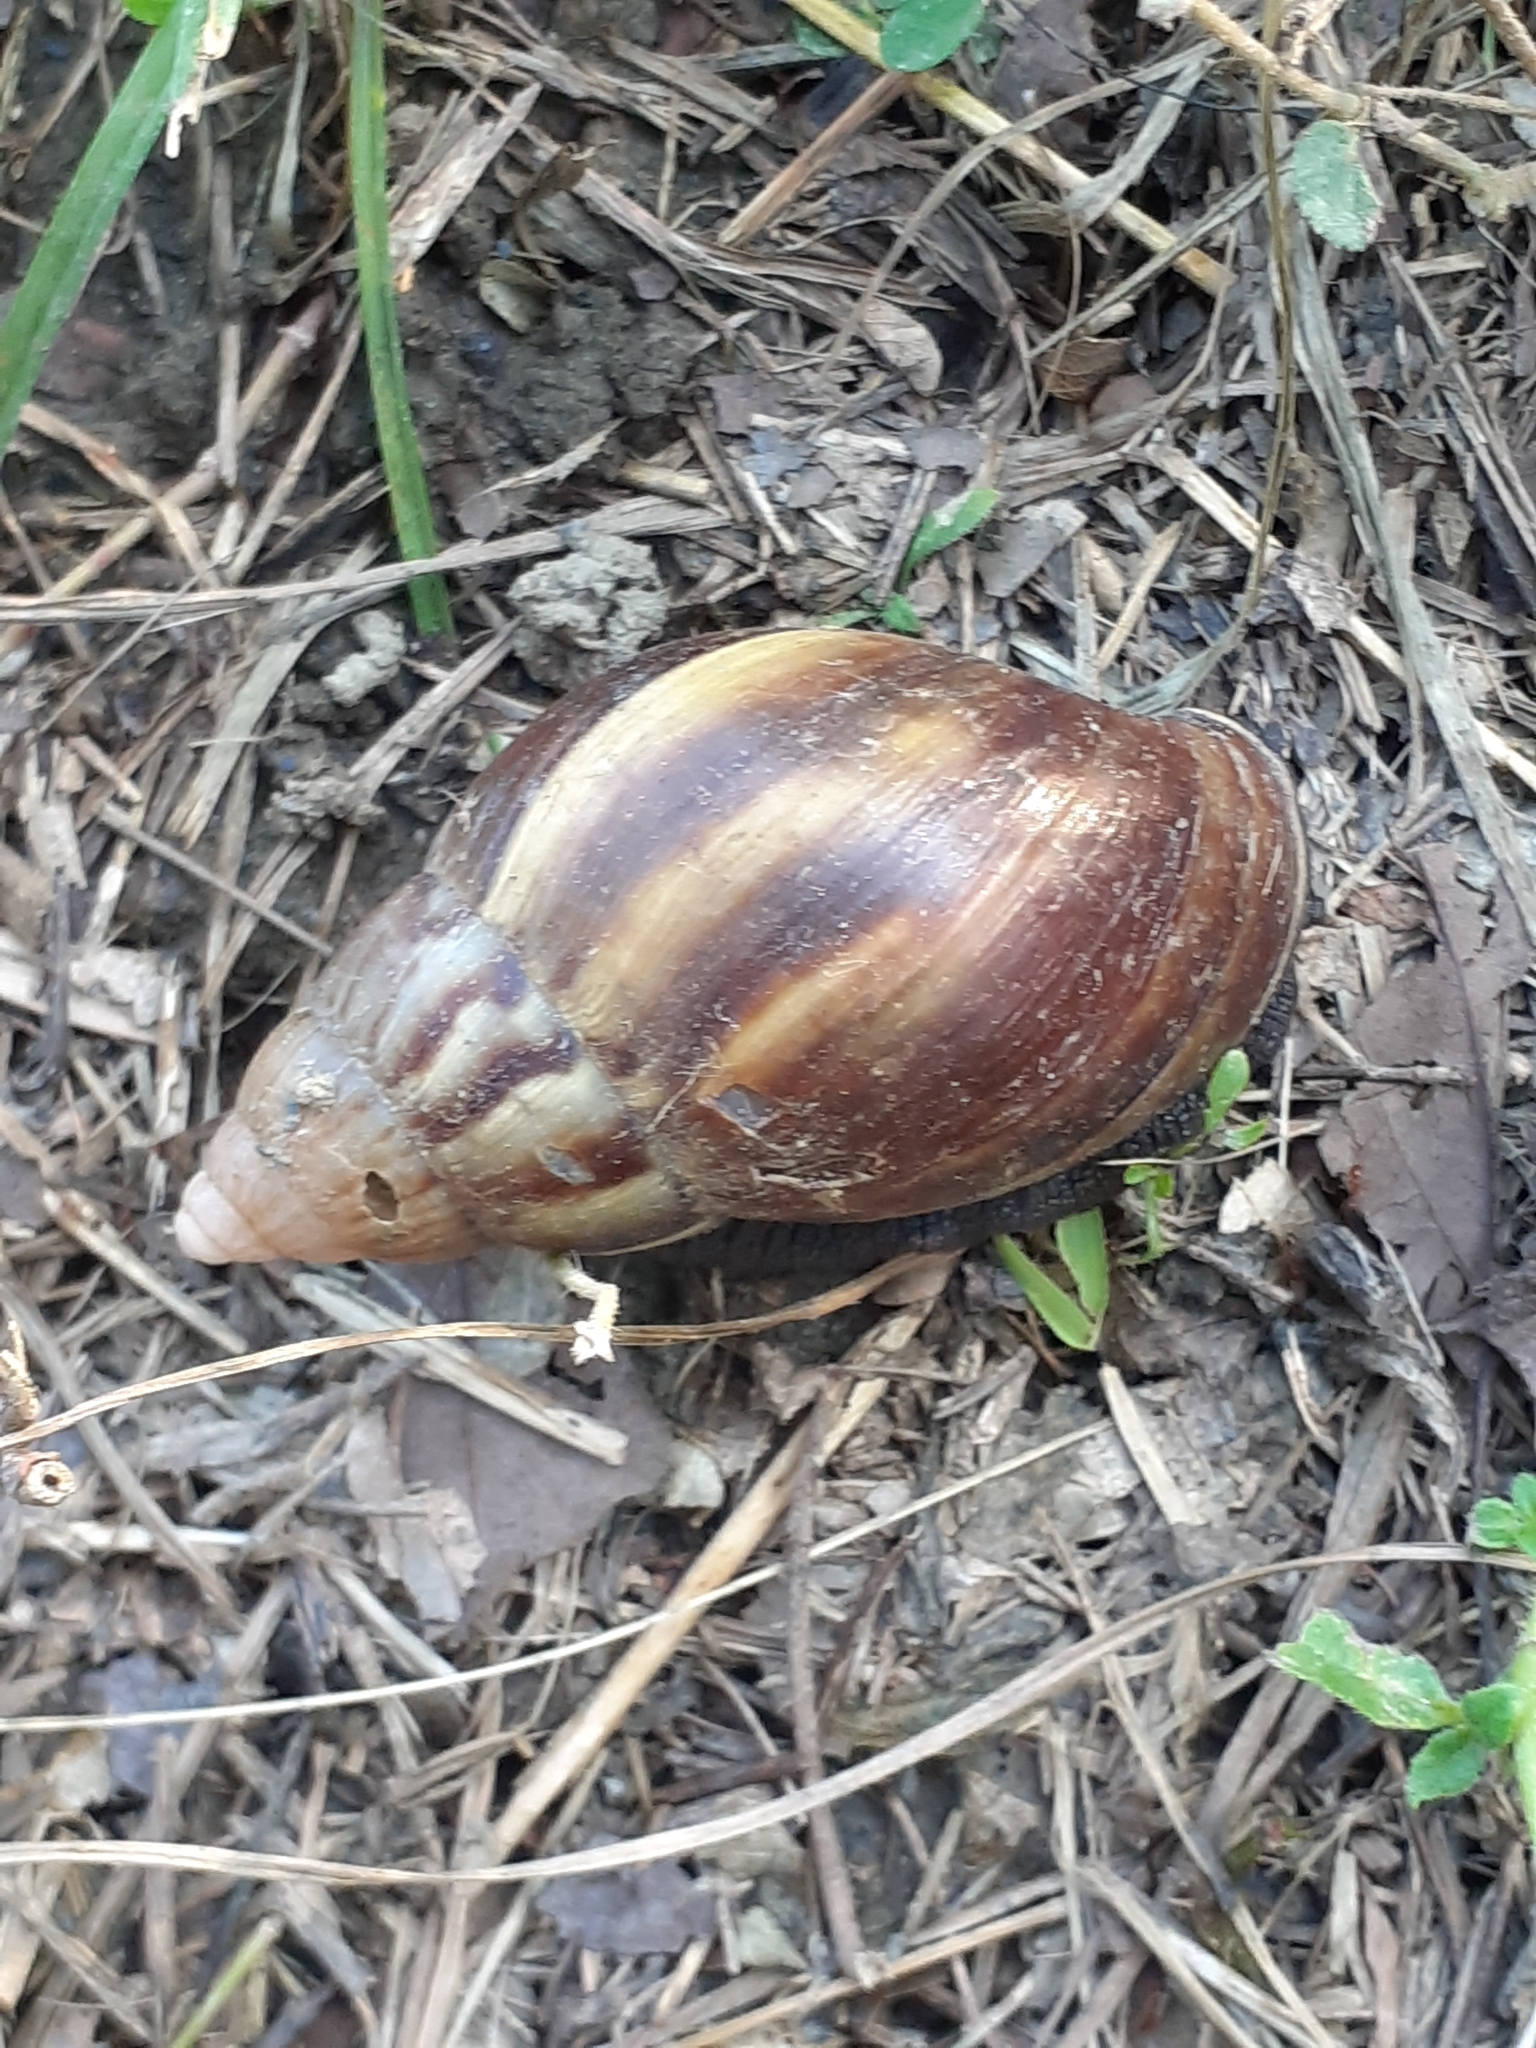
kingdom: Animalia
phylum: Mollusca
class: Gastropoda
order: Stylommatophora
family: Achatinidae
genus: Lissachatina
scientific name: Lissachatina fulica
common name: Giant african snail
